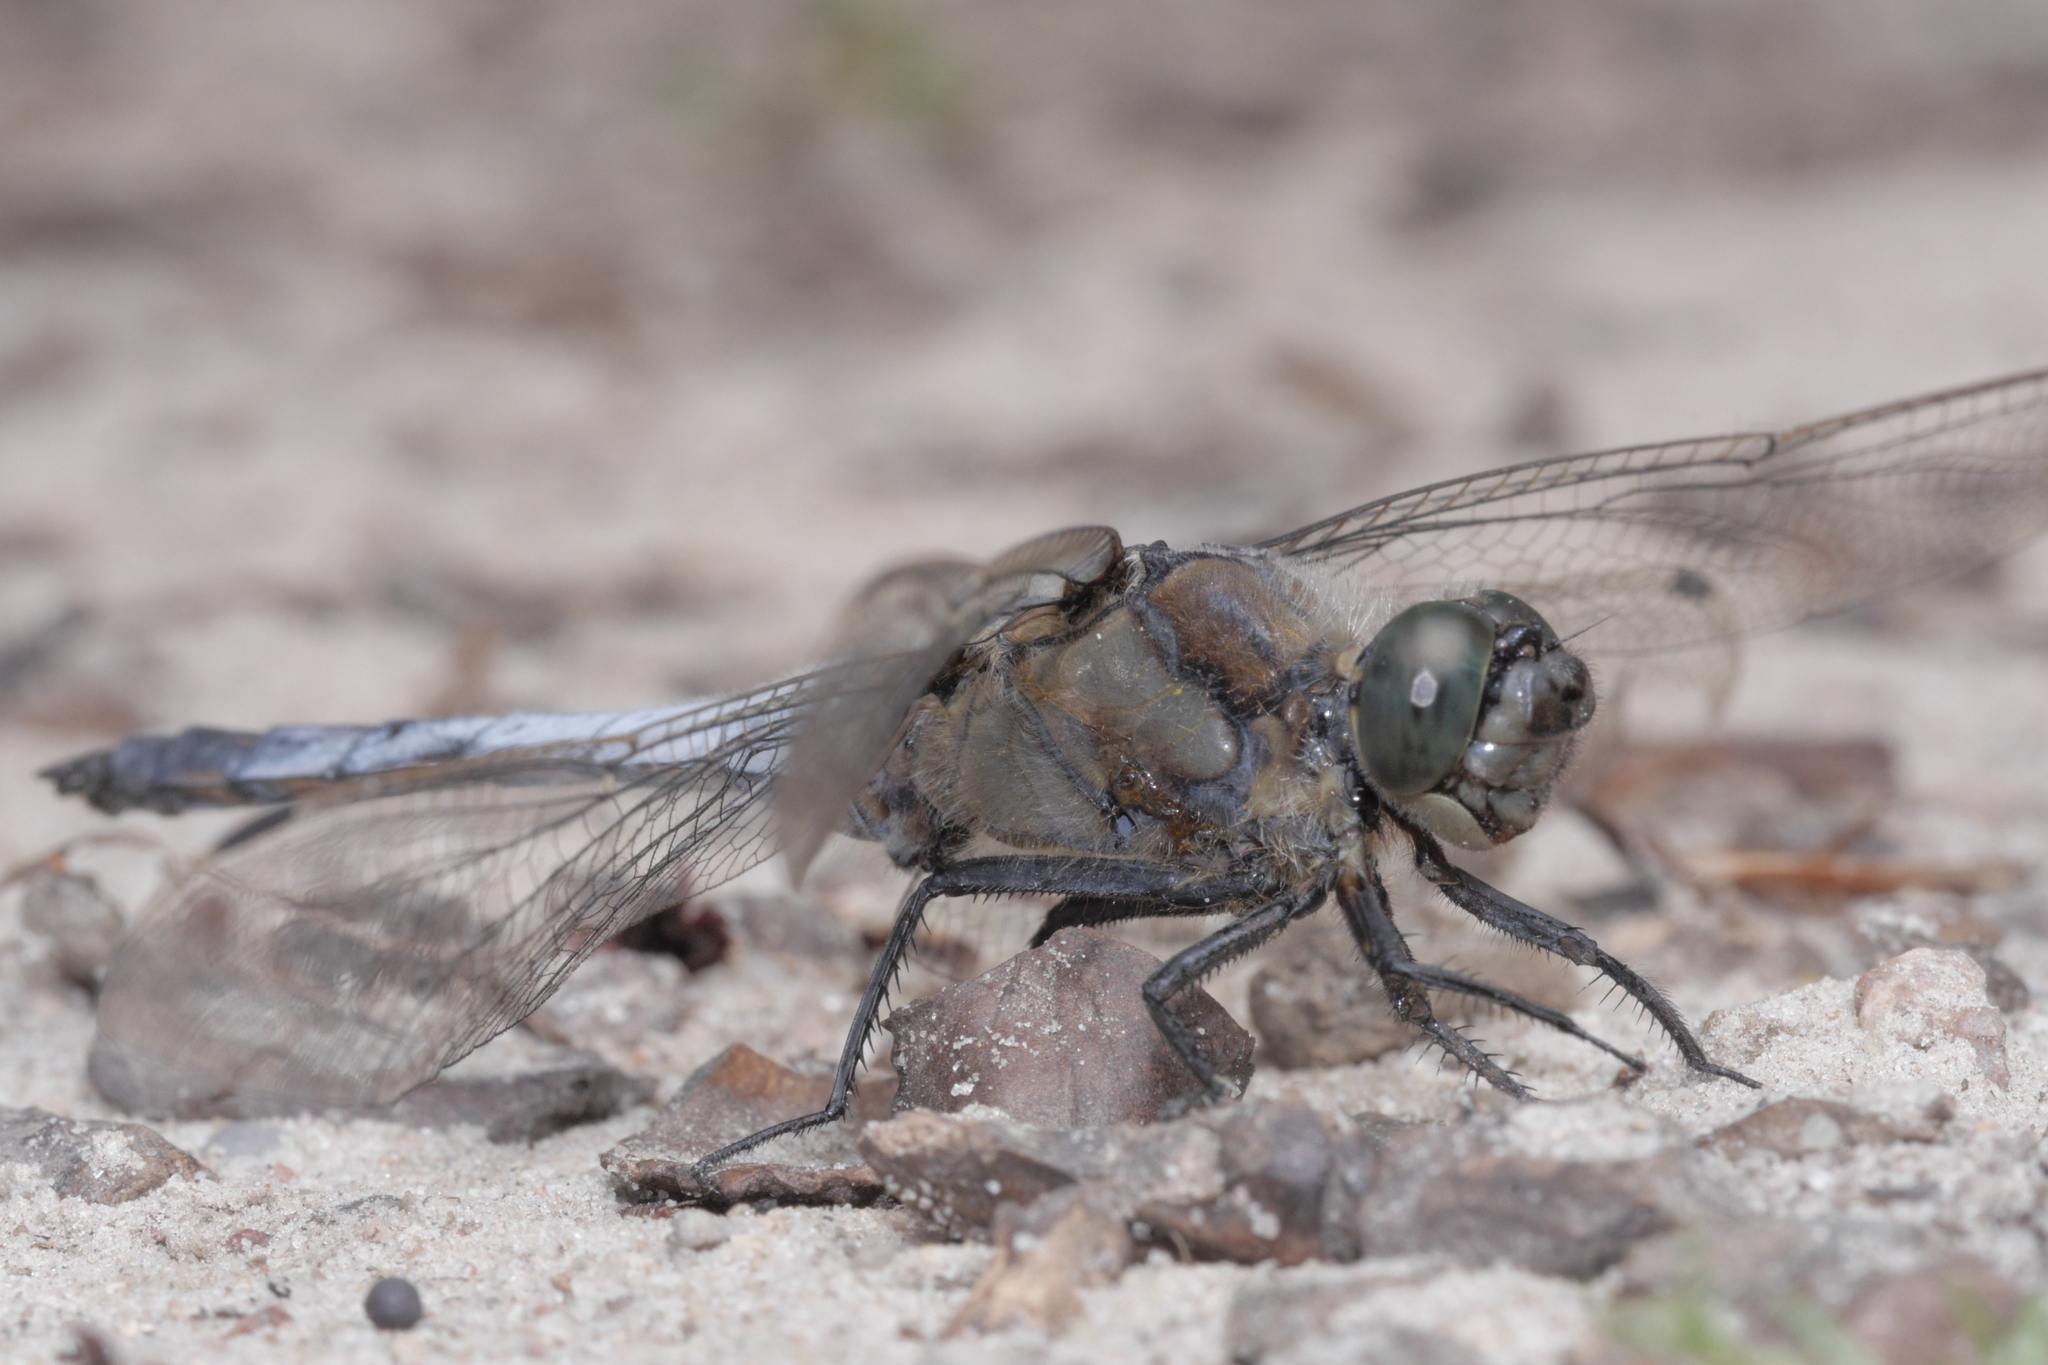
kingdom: Animalia
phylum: Arthropoda
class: Insecta
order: Odonata
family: Libellulidae
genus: Orthetrum
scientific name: Orthetrum cancellatum
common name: Black-tailed skimmer
